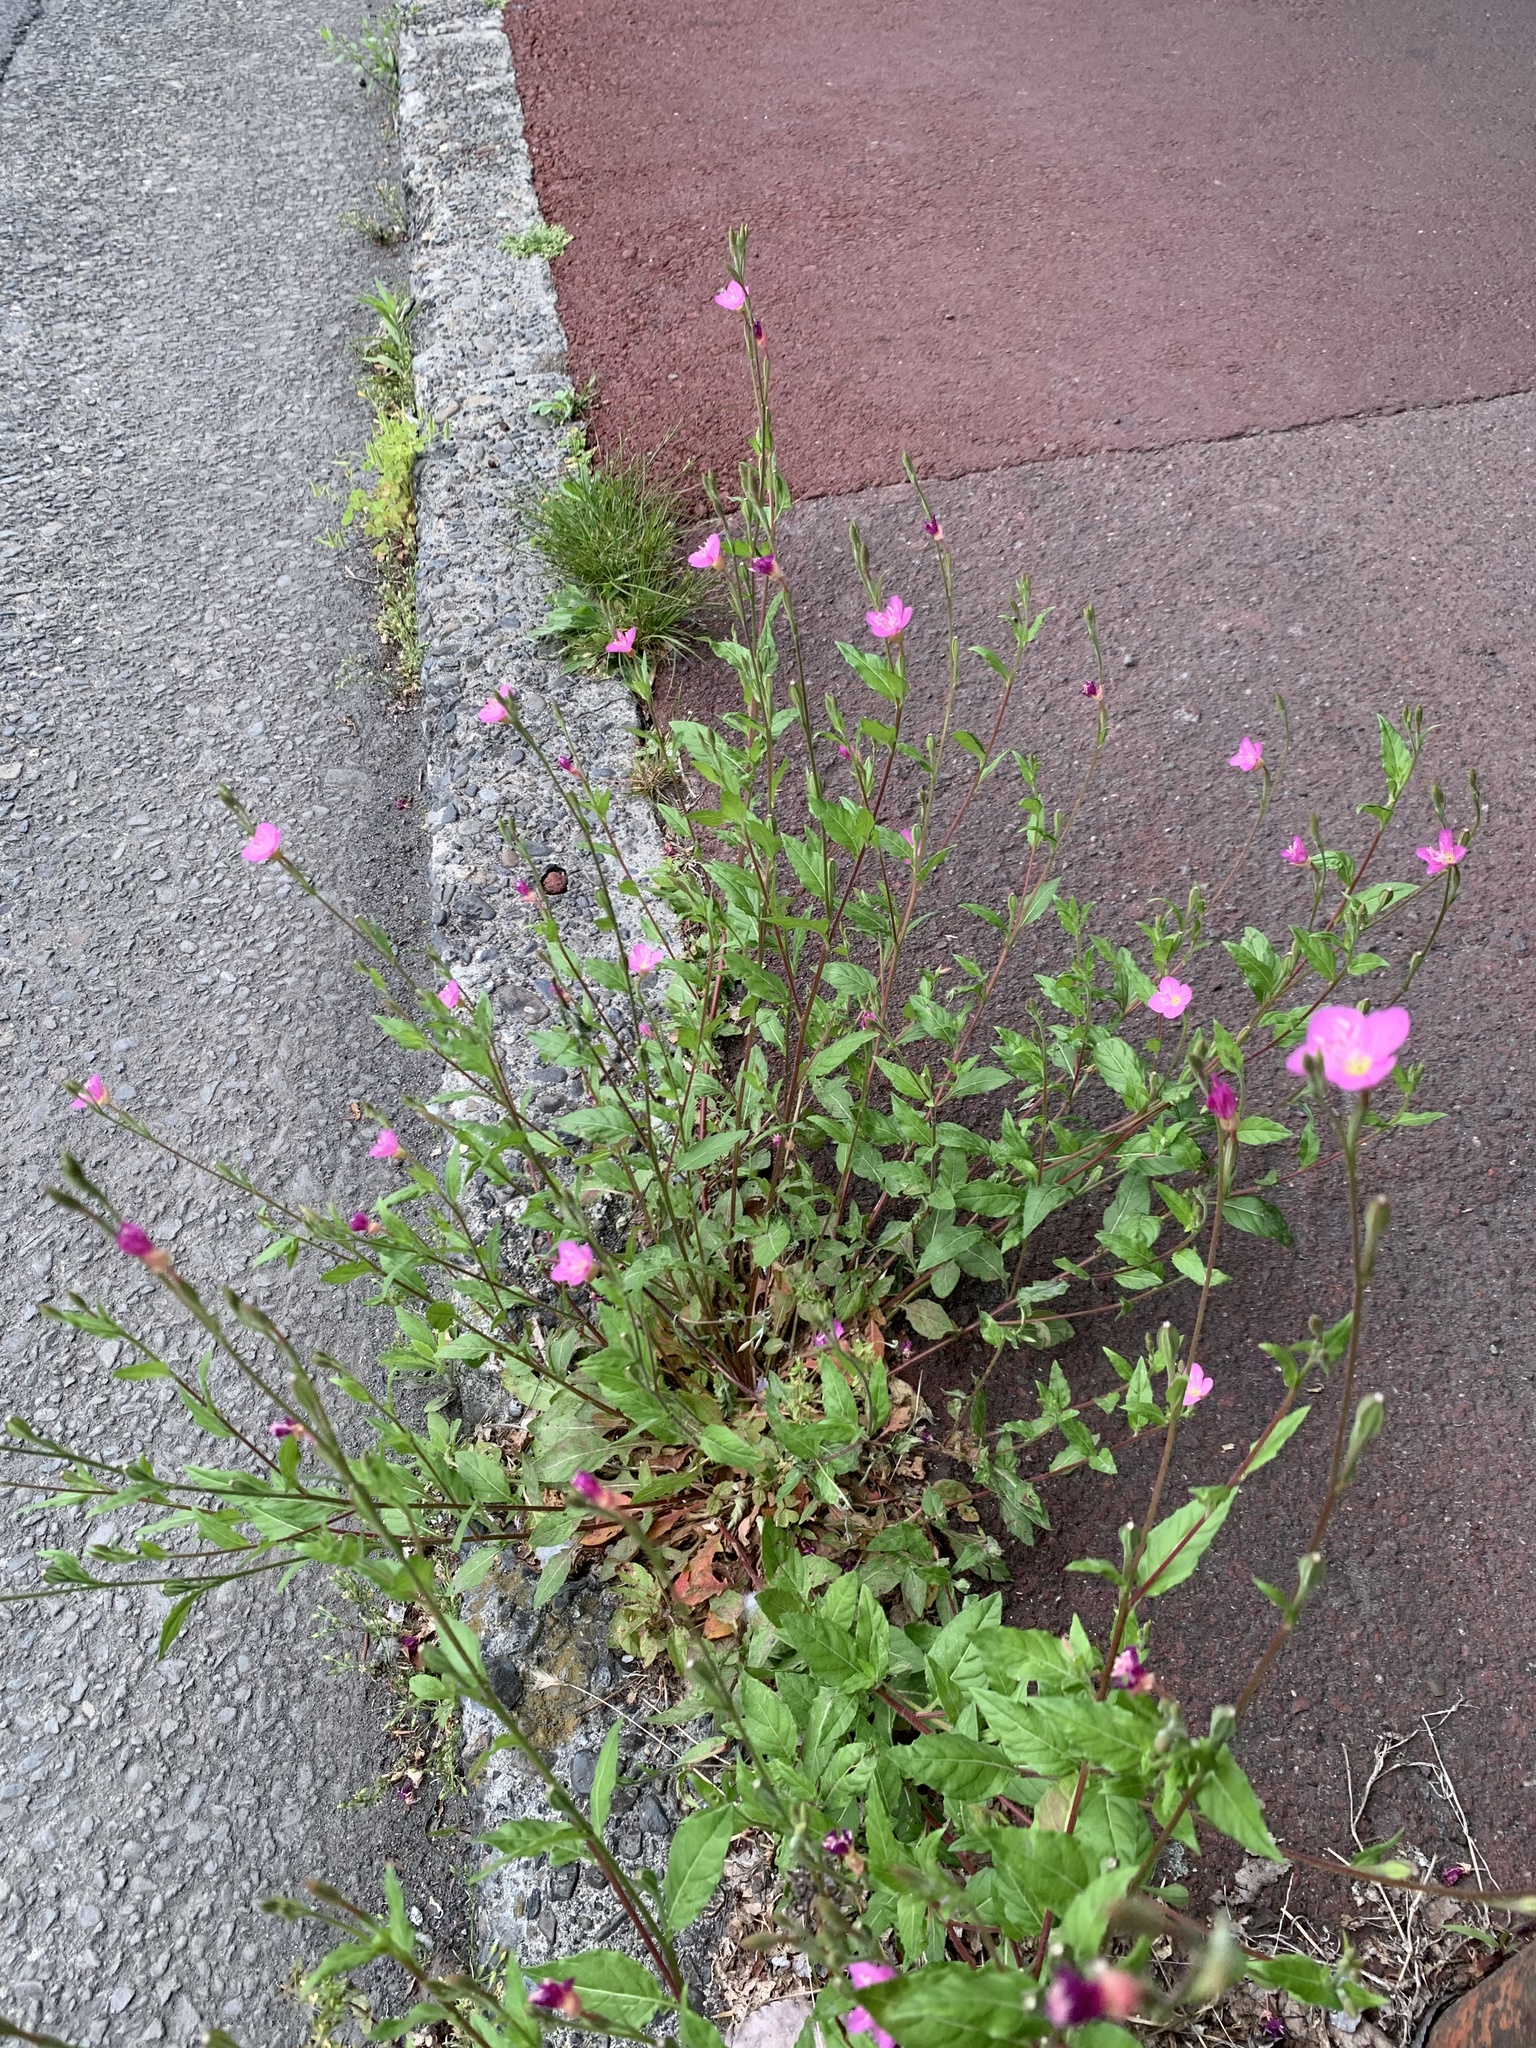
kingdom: Plantae
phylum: Tracheophyta
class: Magnoliopsida
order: Myrtales
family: Onagraceae
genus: Oenothera
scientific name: Oenothera rosea
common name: Rosy evening-primrose
